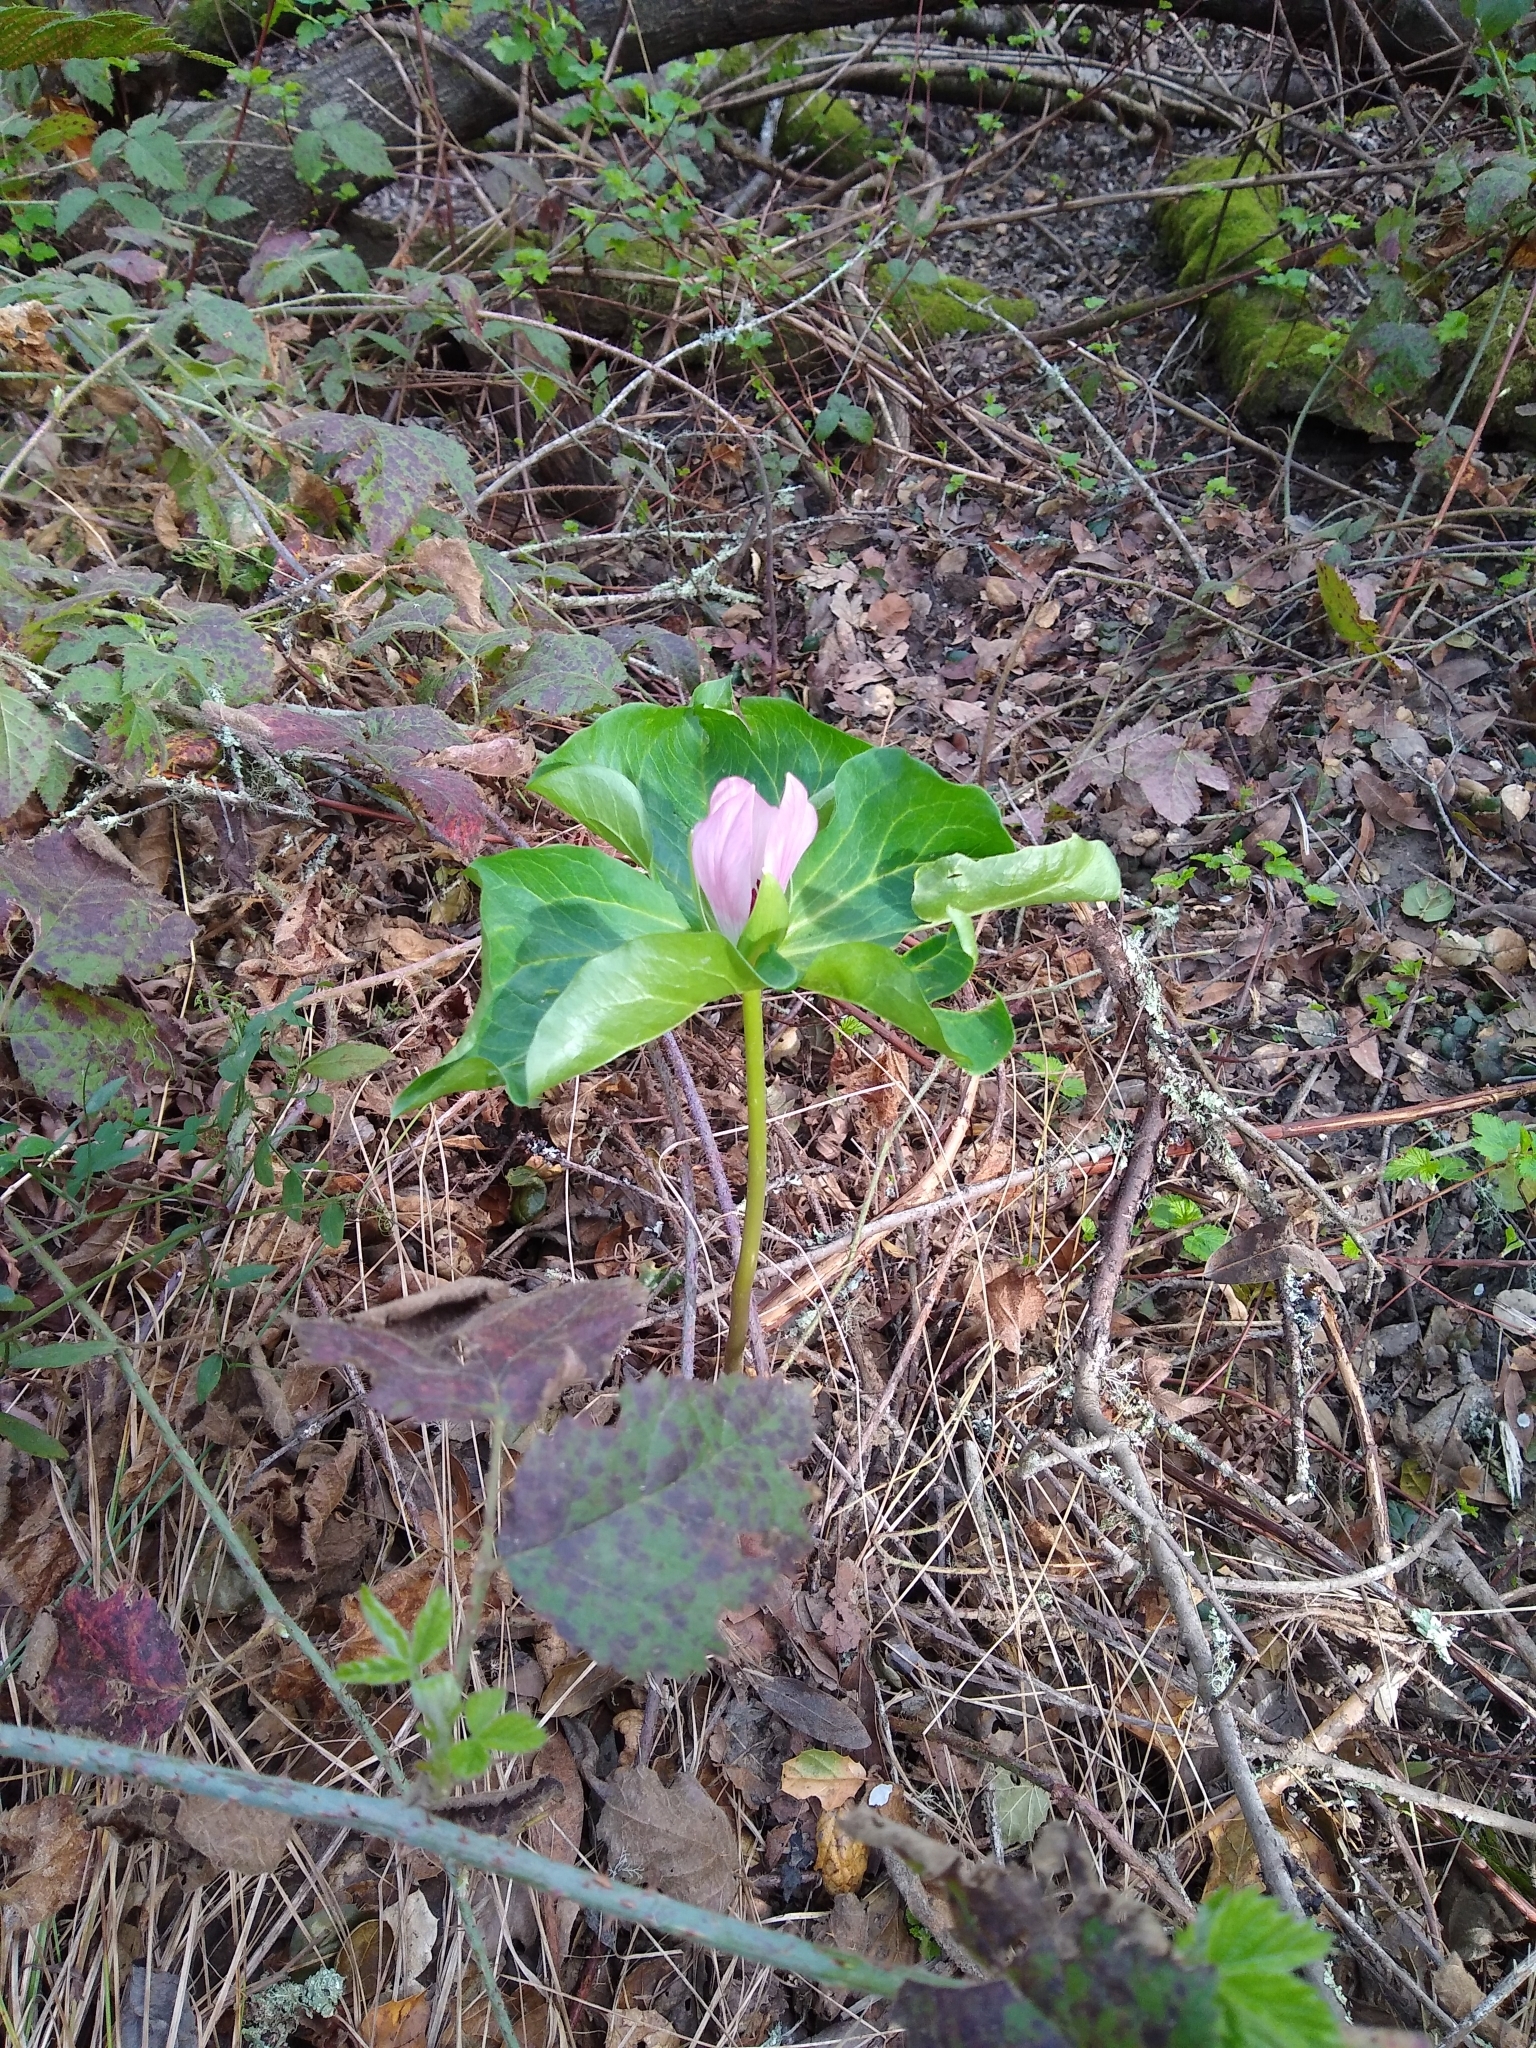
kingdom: Plantae
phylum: Tracheophyta
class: Liliopsida
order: Liliales
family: Melanthiaceae
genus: Trillium
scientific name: Trillium chloropetalum
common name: Giant trillium
